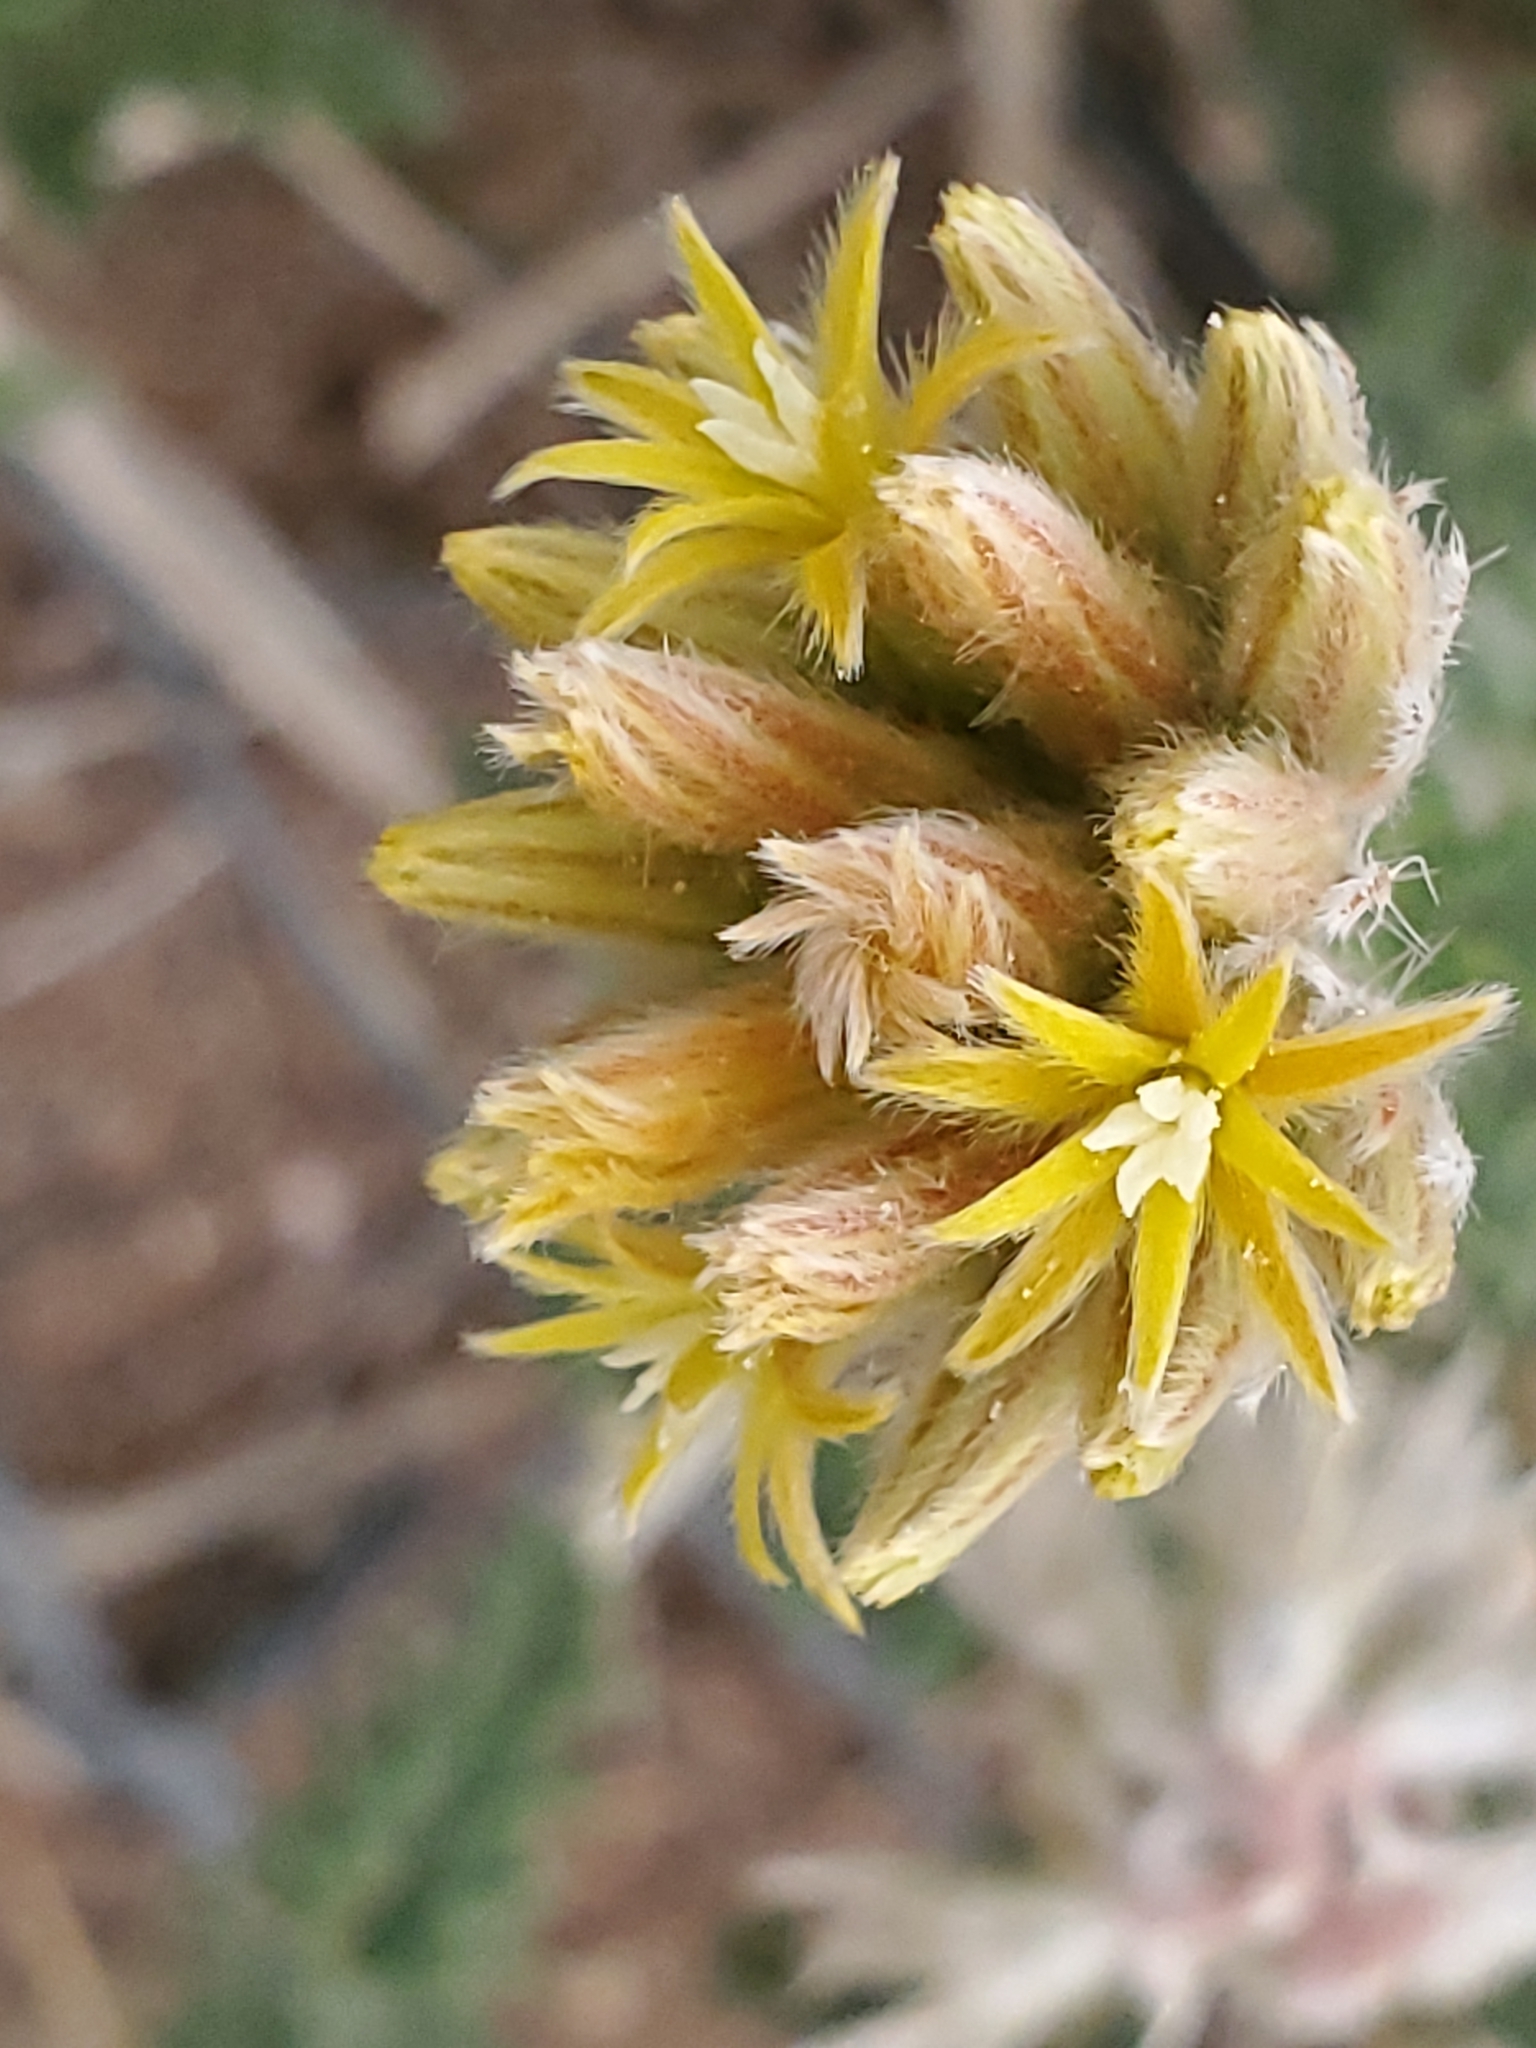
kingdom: Plantae
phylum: Tracheophyta
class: Magnoliopsida
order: Cornales
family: Loasaceae
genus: Cevallia
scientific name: Cevallia sinuata
